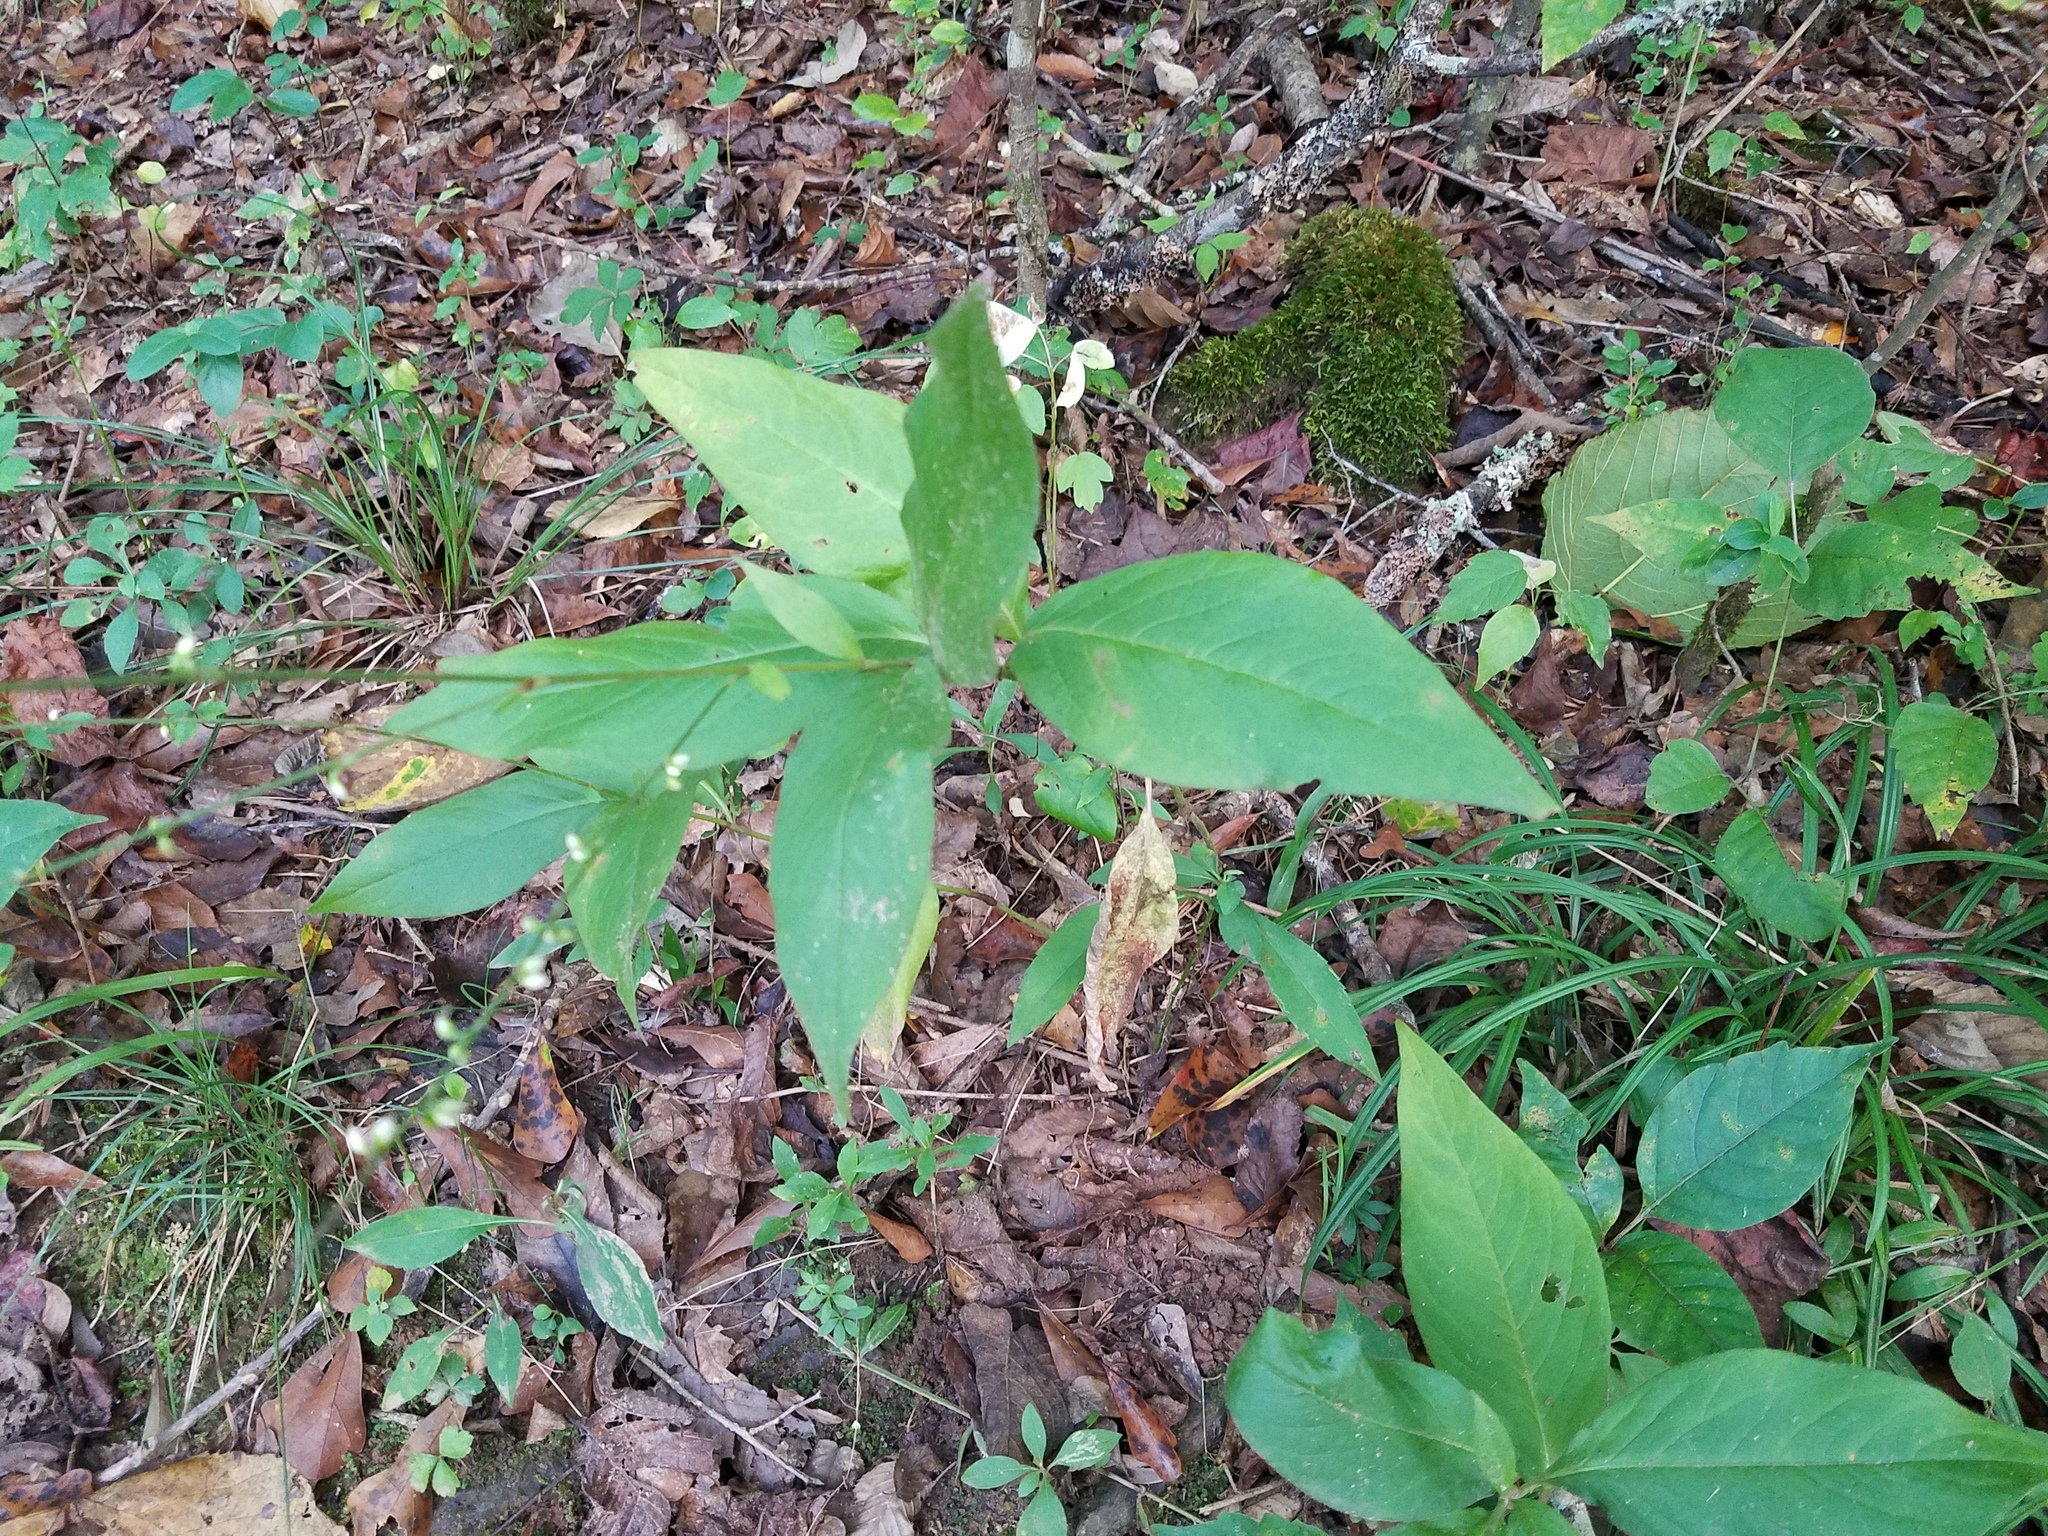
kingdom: Plantae
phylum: Tracheophyta
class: Magnoliopsida
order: Caryophyllales
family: Polygonaceae
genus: Persicaria
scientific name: Persicaria virginiana
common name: Jumpseed
